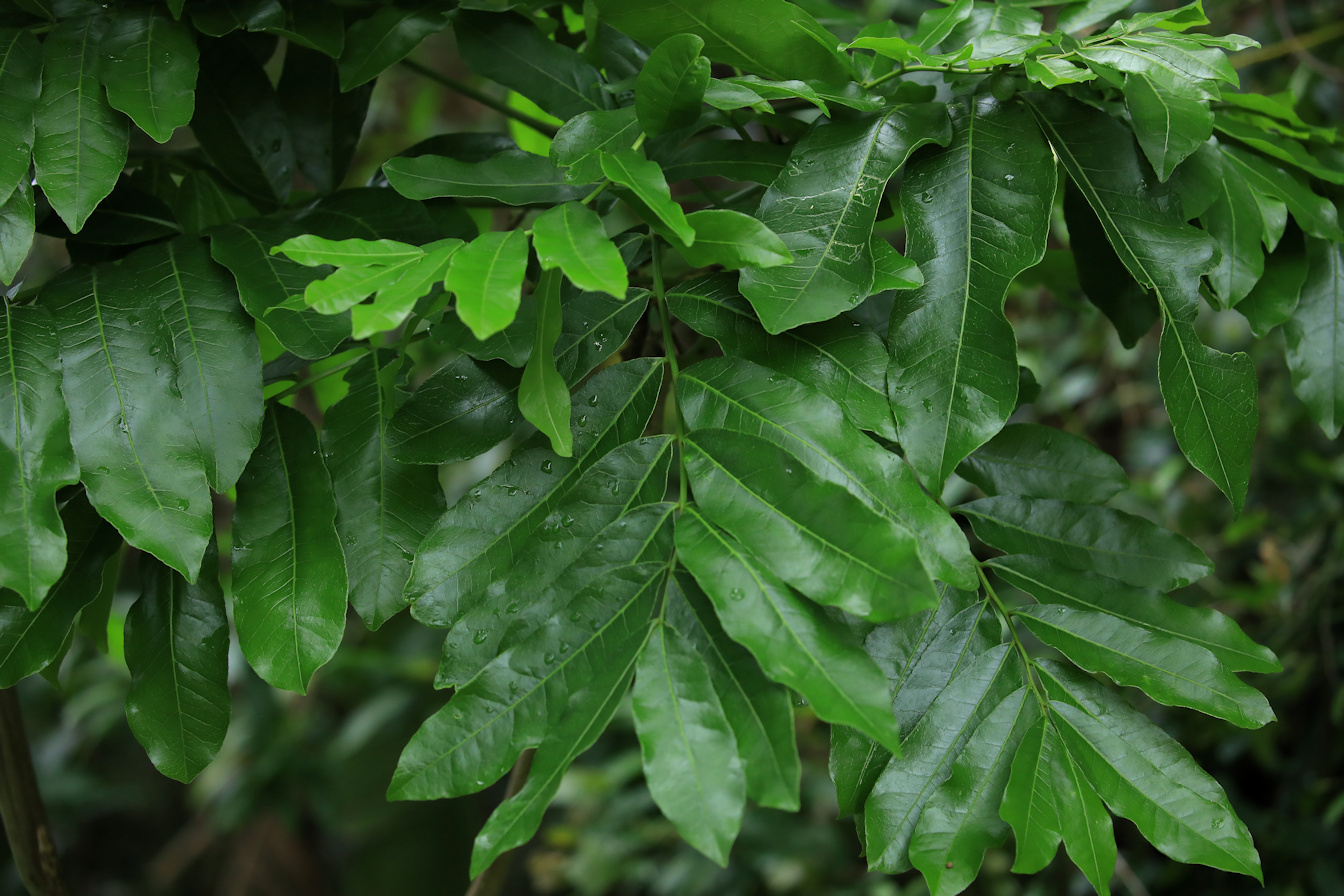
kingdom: Plantae
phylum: Tracheophyta
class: Magnoliopsida
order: Sapindales
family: Meliaceae
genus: Trichilia
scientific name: Trichilia dregeana
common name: Christmas-bells
